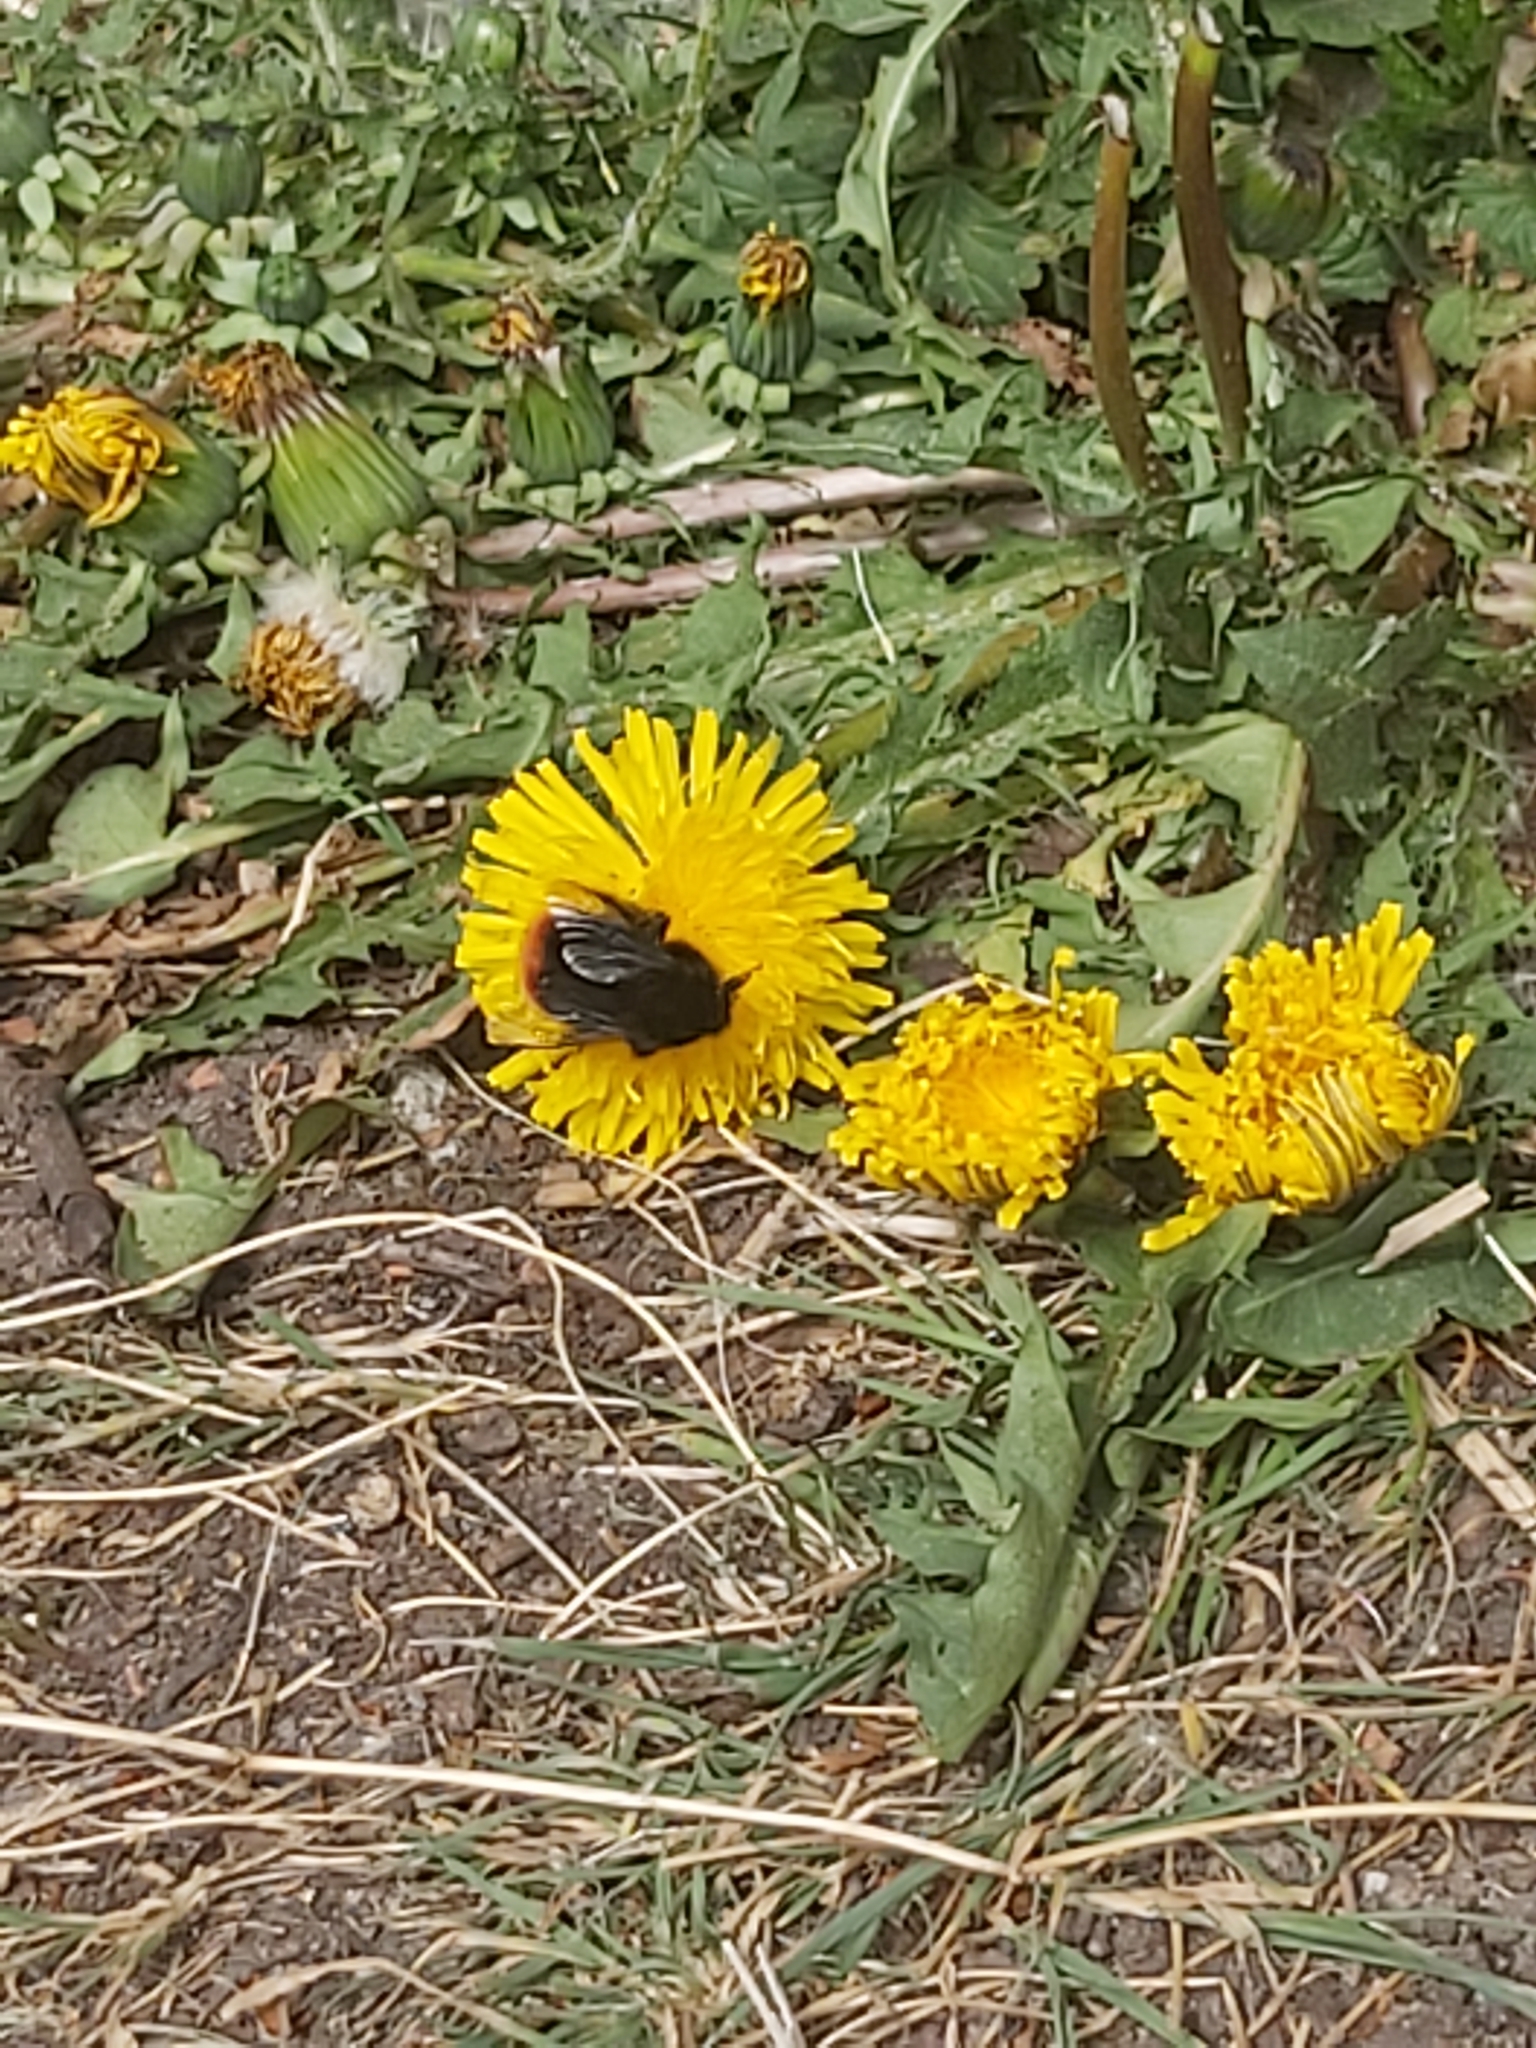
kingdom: Animalia
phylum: Arthropoda
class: Insecta
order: Hymenoptera
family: Apidae
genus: Bombus
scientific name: Bombus lapidarius
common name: Large red-tailed humble-bee
